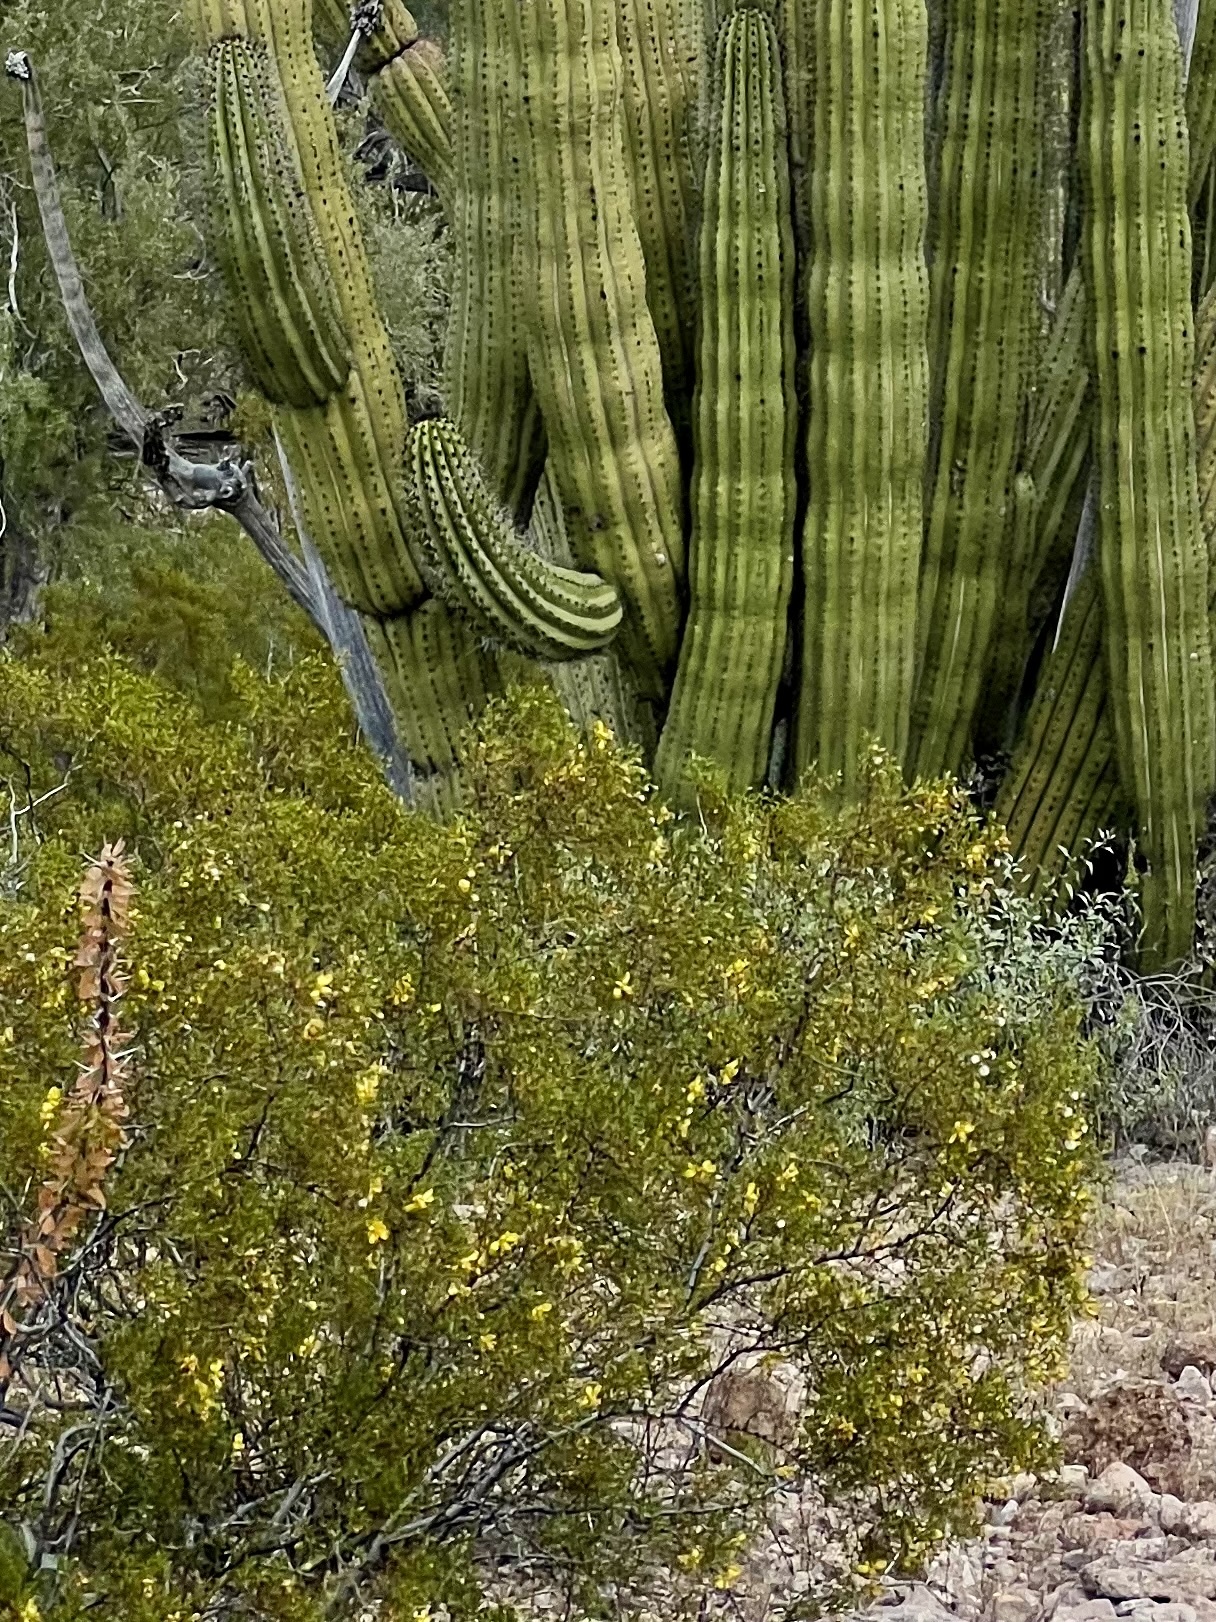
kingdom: Plantae
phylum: Tracheophyta
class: Magnoliopsida
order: Zygophyllales
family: Zygophyllaceae
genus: Larrea
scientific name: Larrea tridentata
